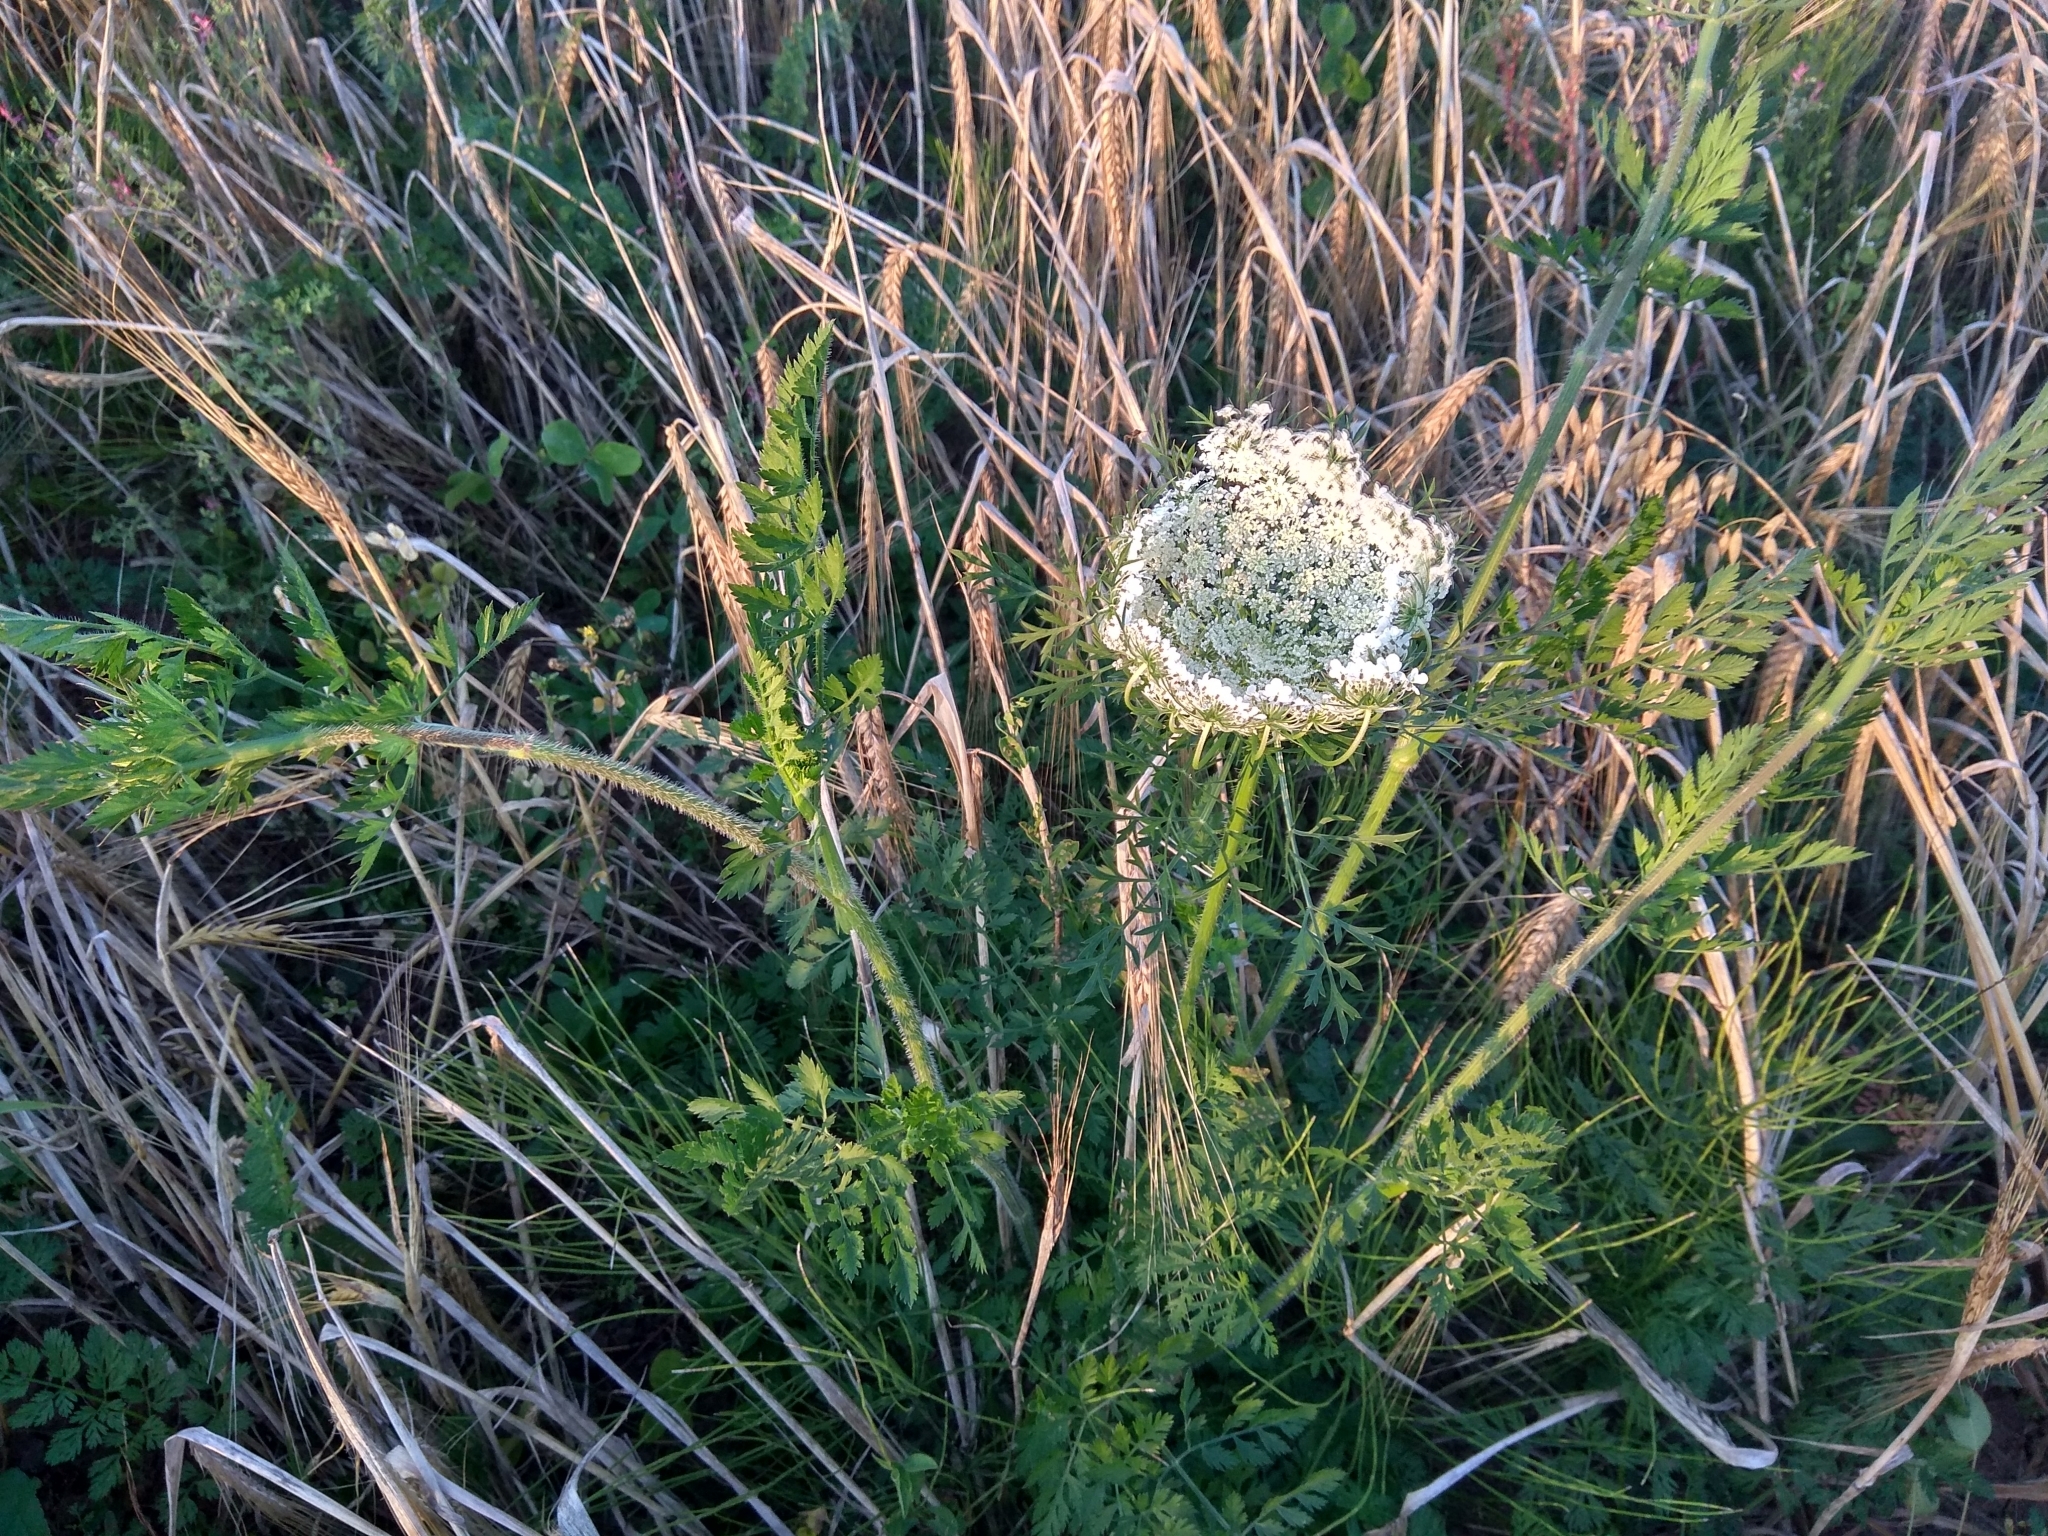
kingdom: Plantae
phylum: Tracheophyta
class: Magnoliopsida
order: Apiales
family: Apiaceae
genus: Daucus
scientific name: Daucus carota
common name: Wild carrot
